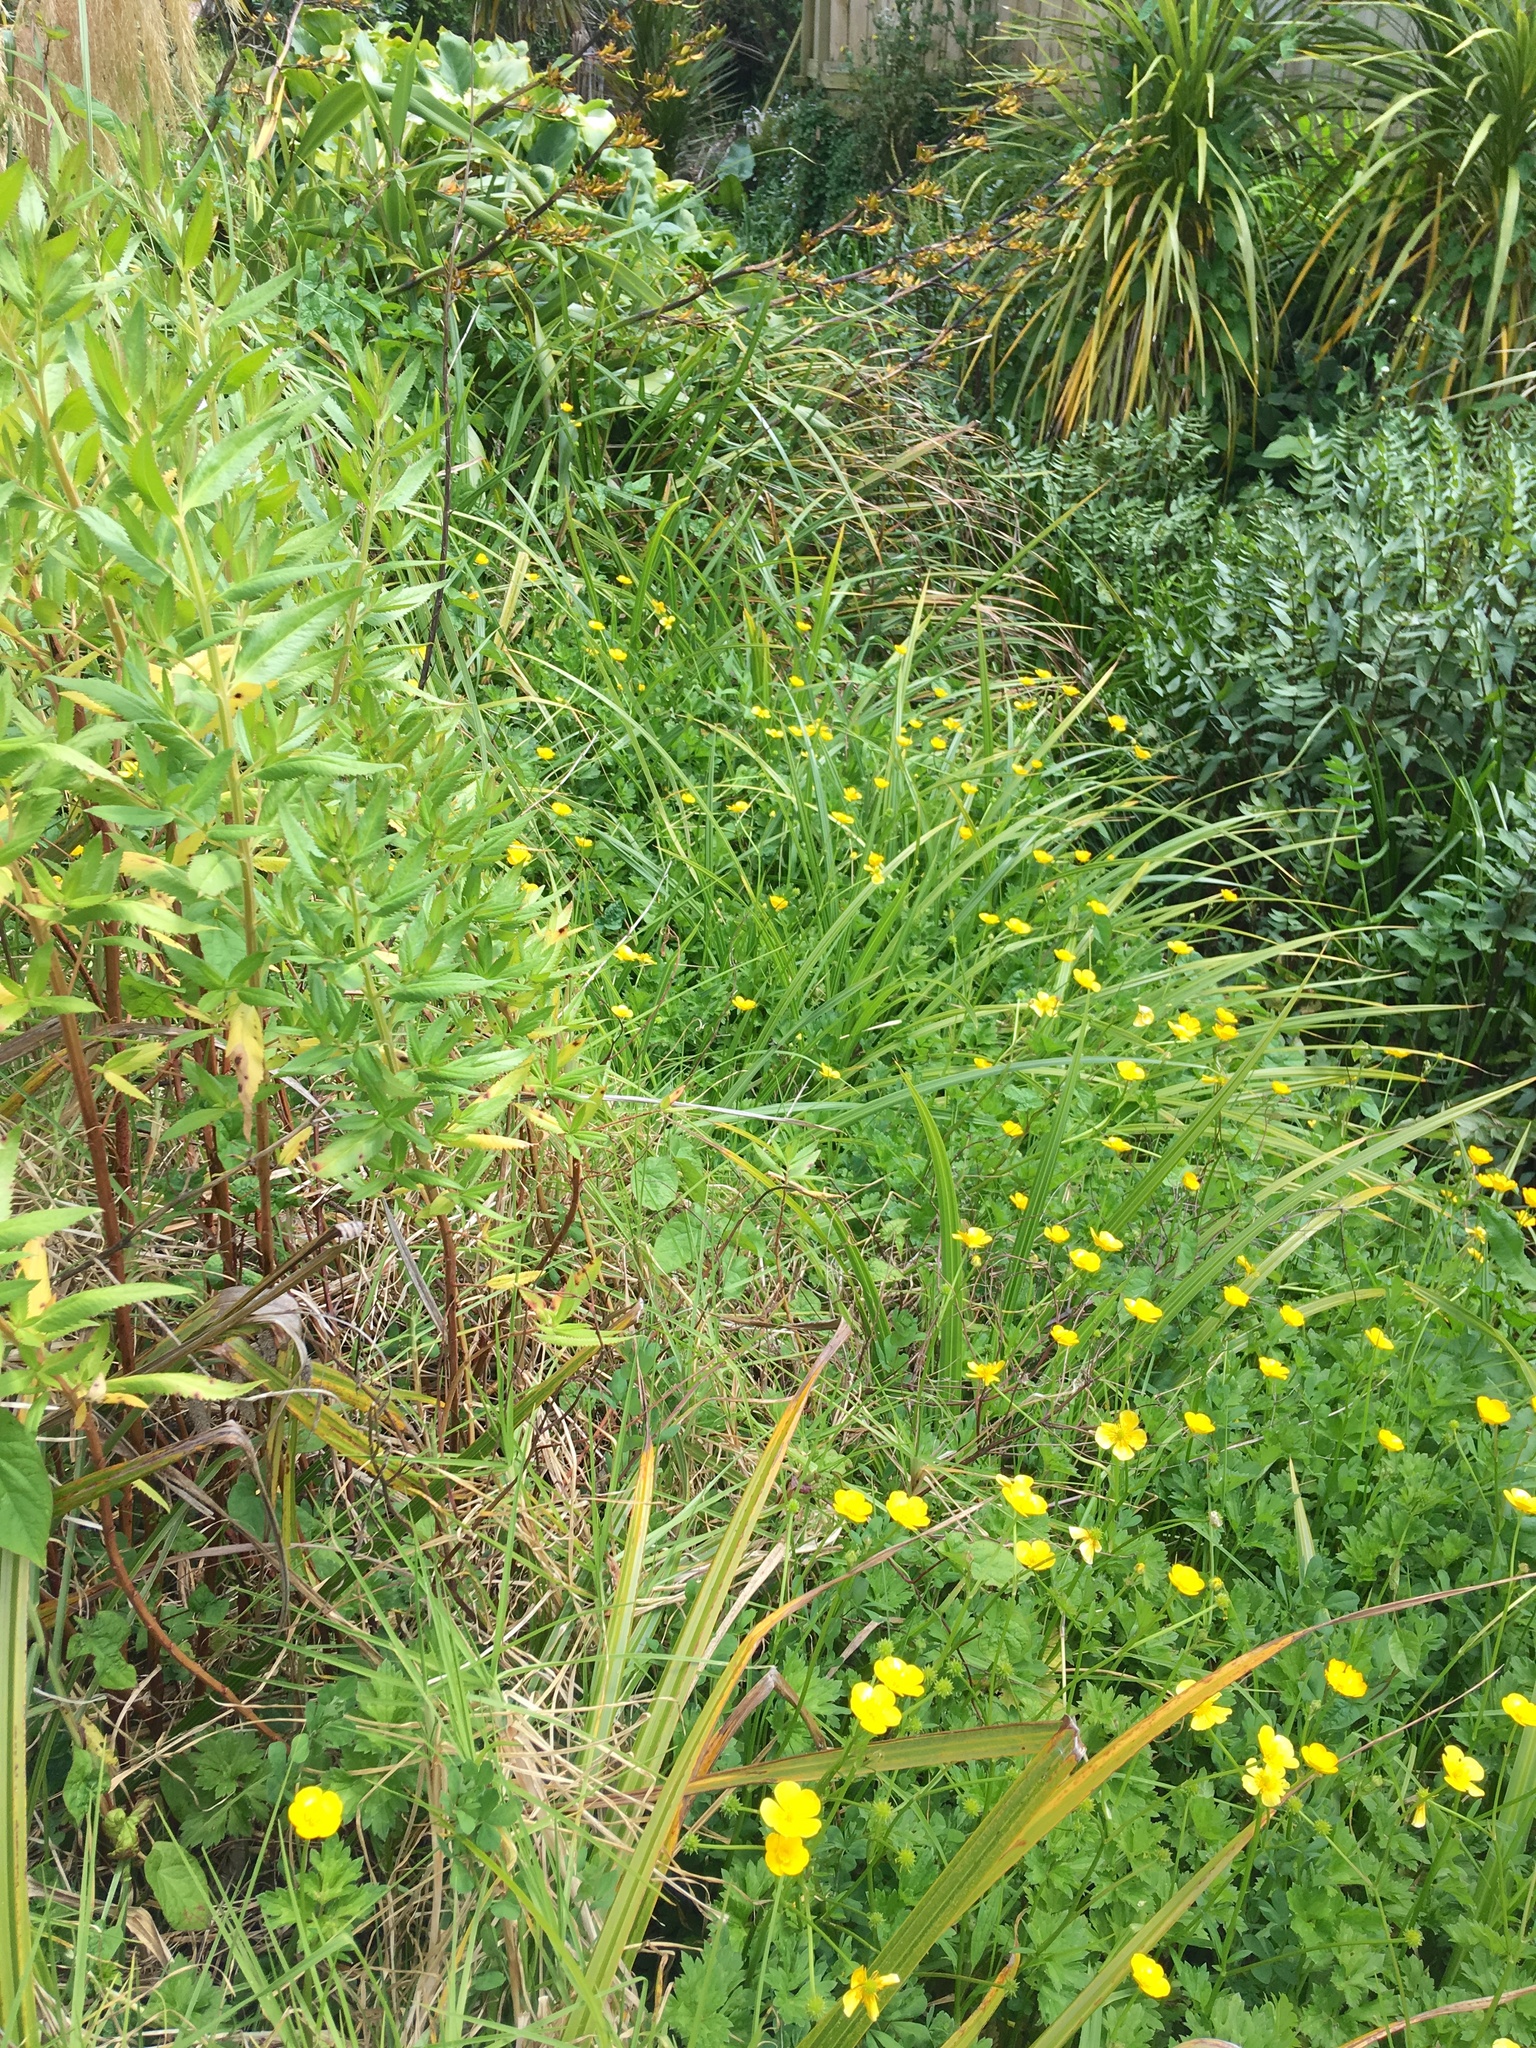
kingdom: Plantae
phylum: Tracheophyta
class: Magnoliopsida
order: Saxifragales
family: Haloragaceae
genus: Haloragis
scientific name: Haloragis erecta
